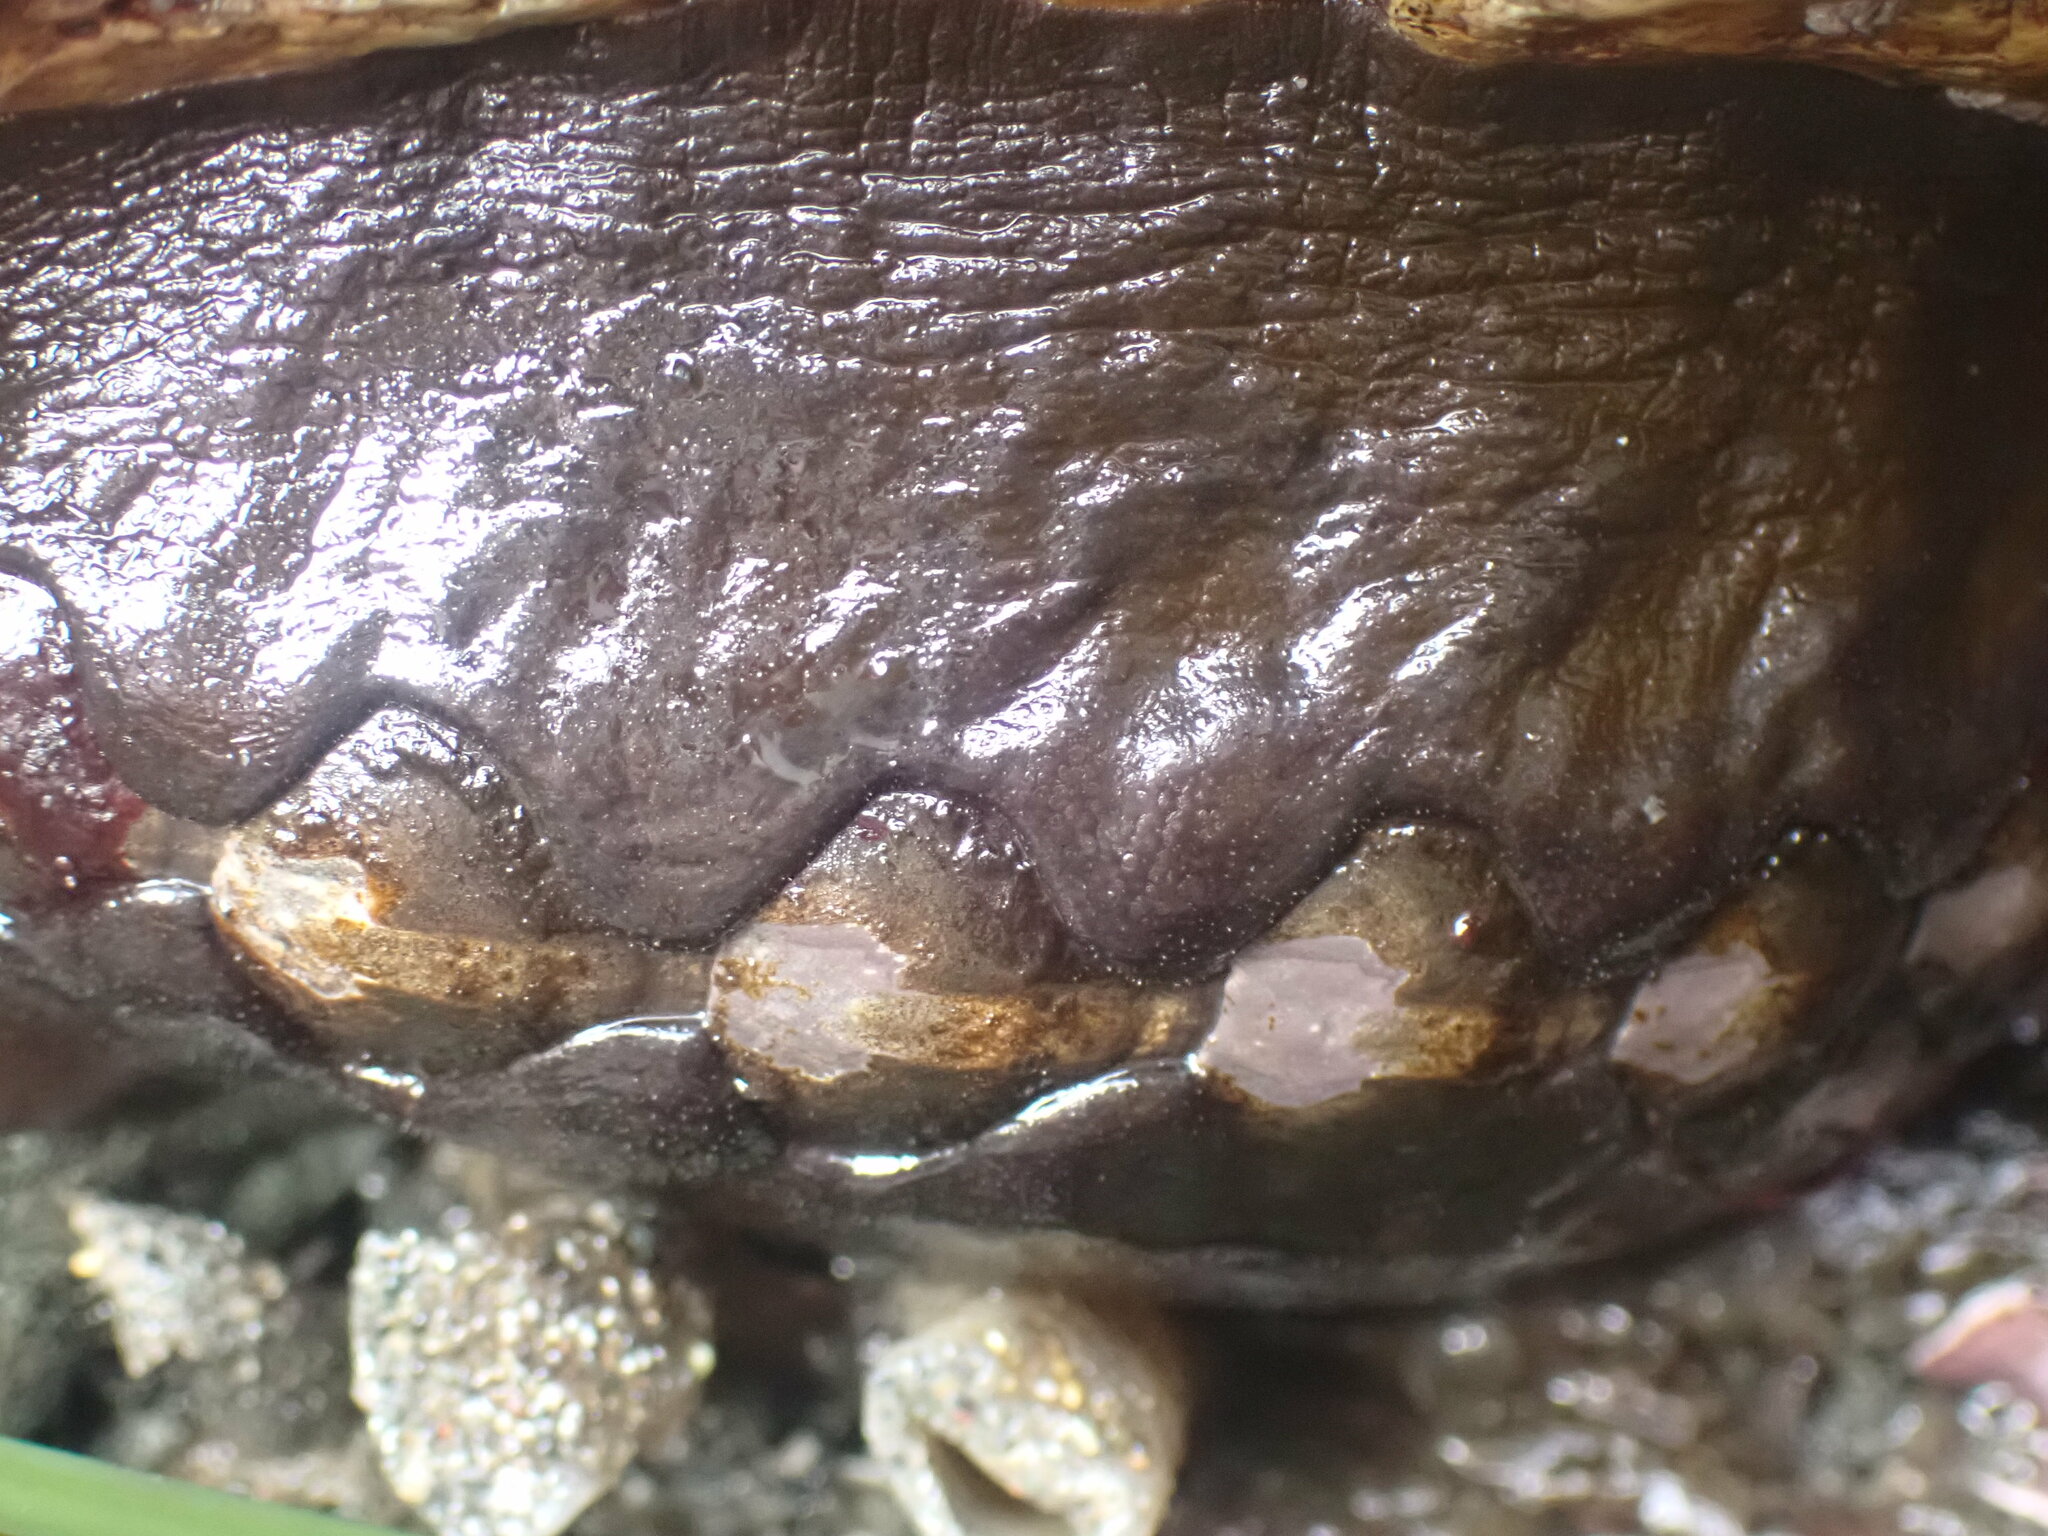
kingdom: Animalia
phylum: Mollusca
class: Polyplacophora
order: Chitonida
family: Mopaliidae
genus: Katharina
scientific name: Katharina tunicata
